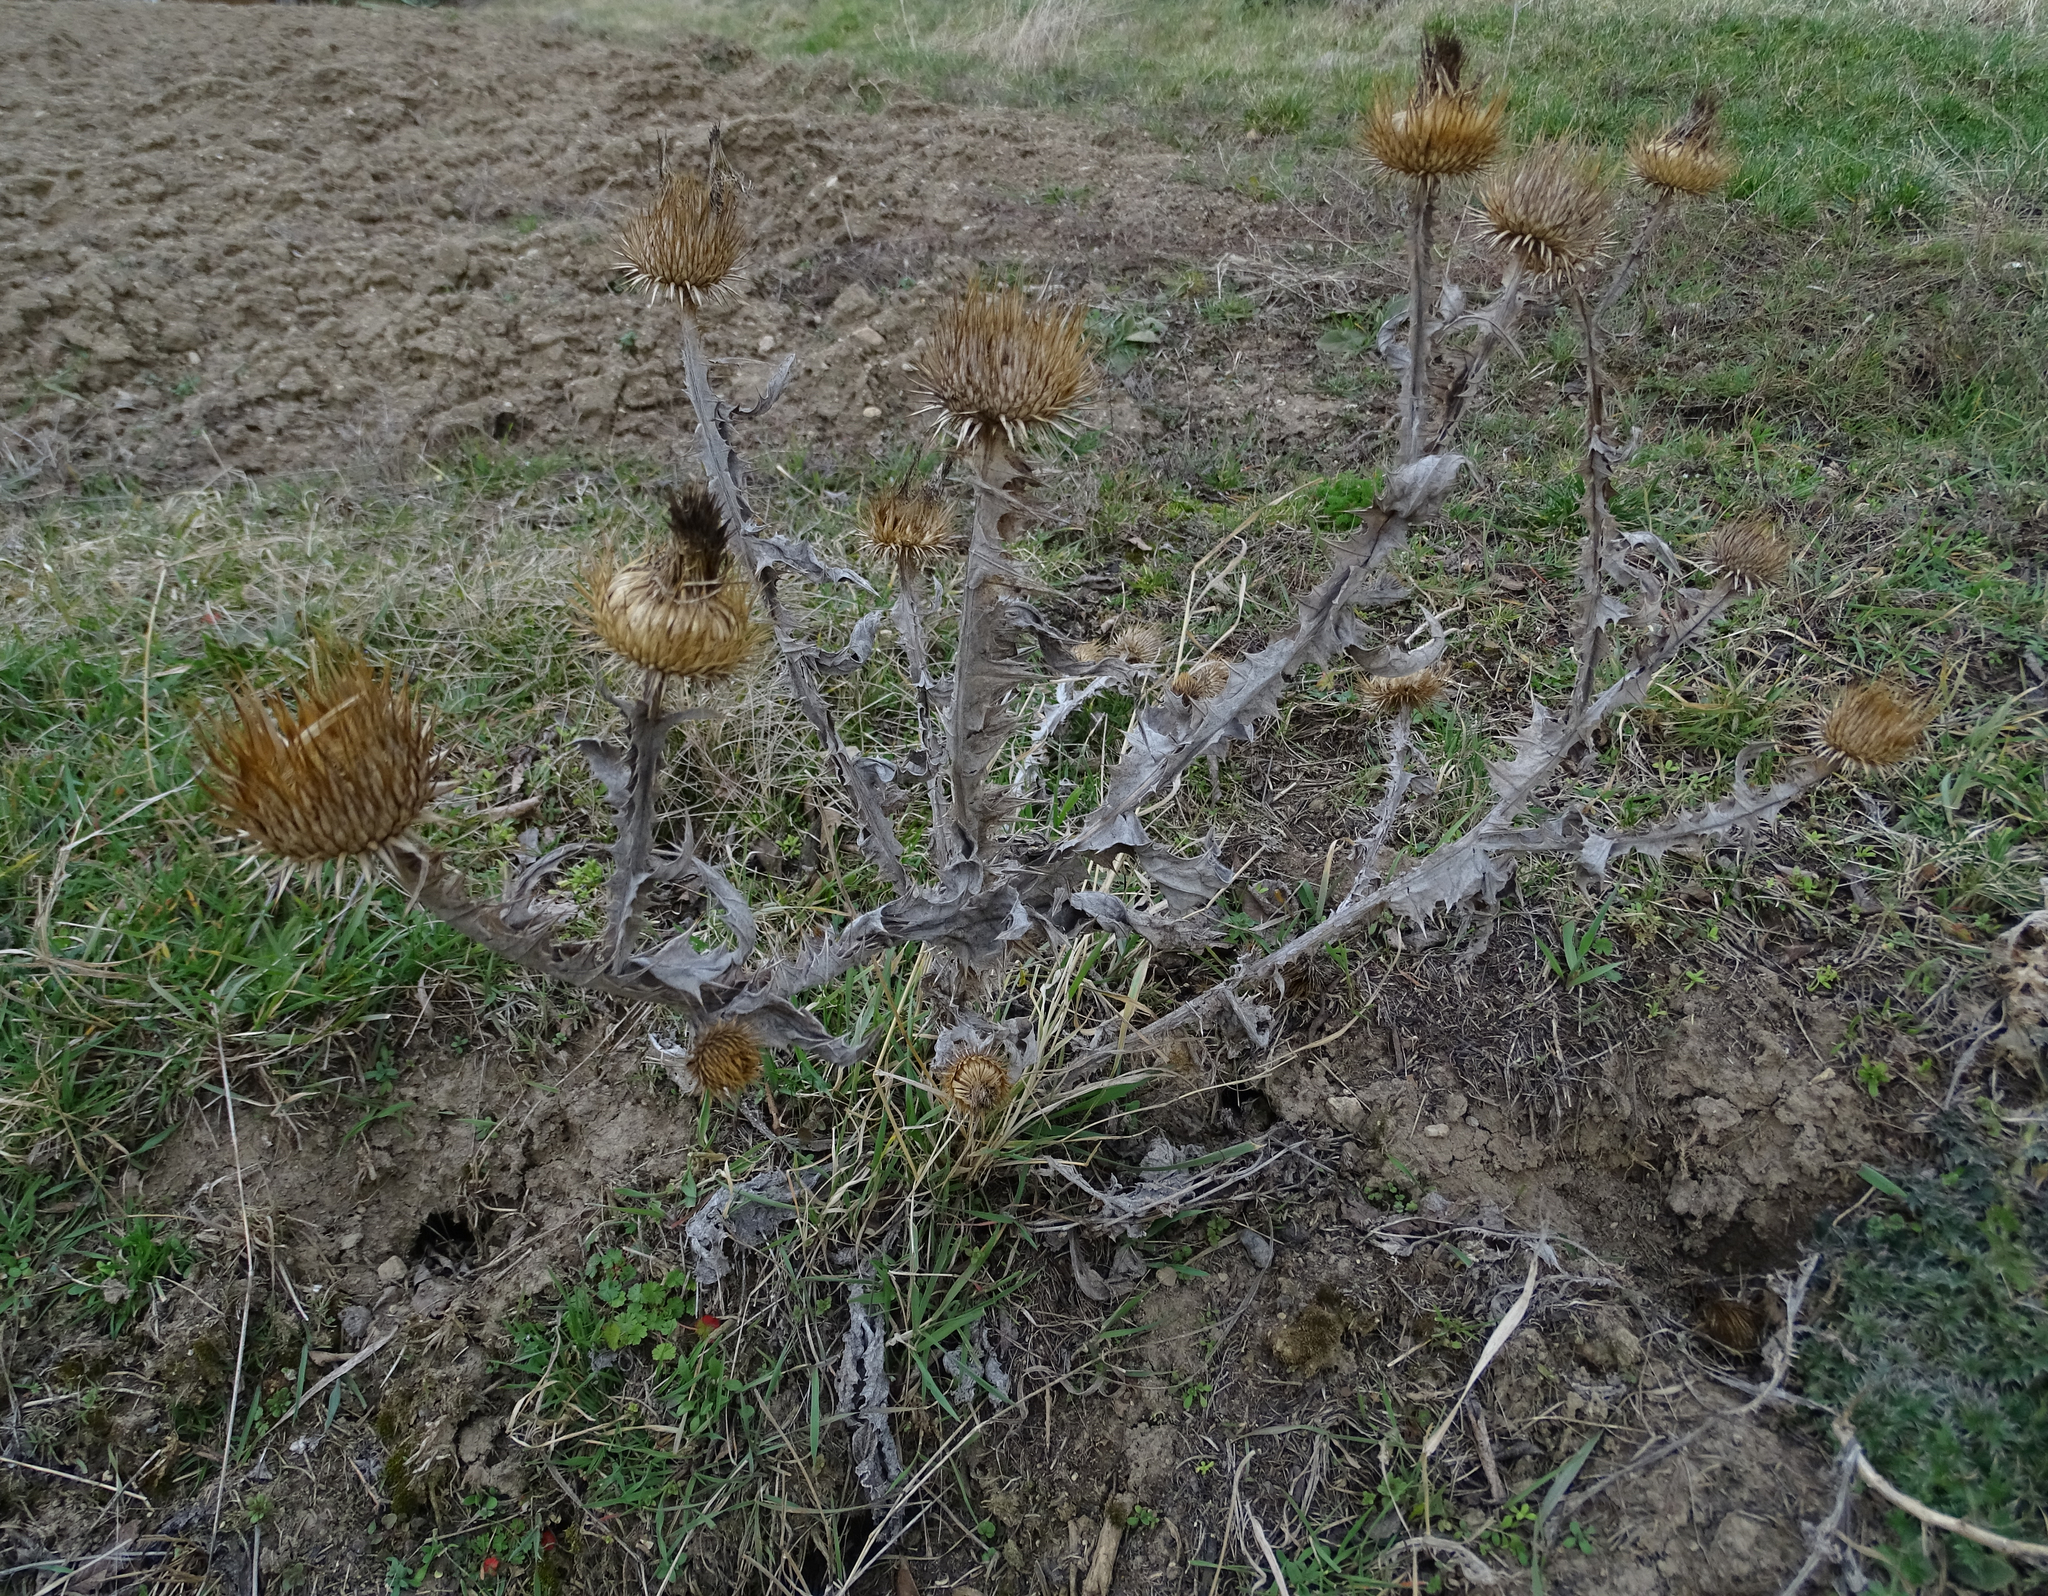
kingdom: Plantae
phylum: Tracheophyta
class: Magnoliopsida
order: Asterales
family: Asteraceae
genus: Onopordum
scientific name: Onopordum acanthium
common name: Scotch thistle
